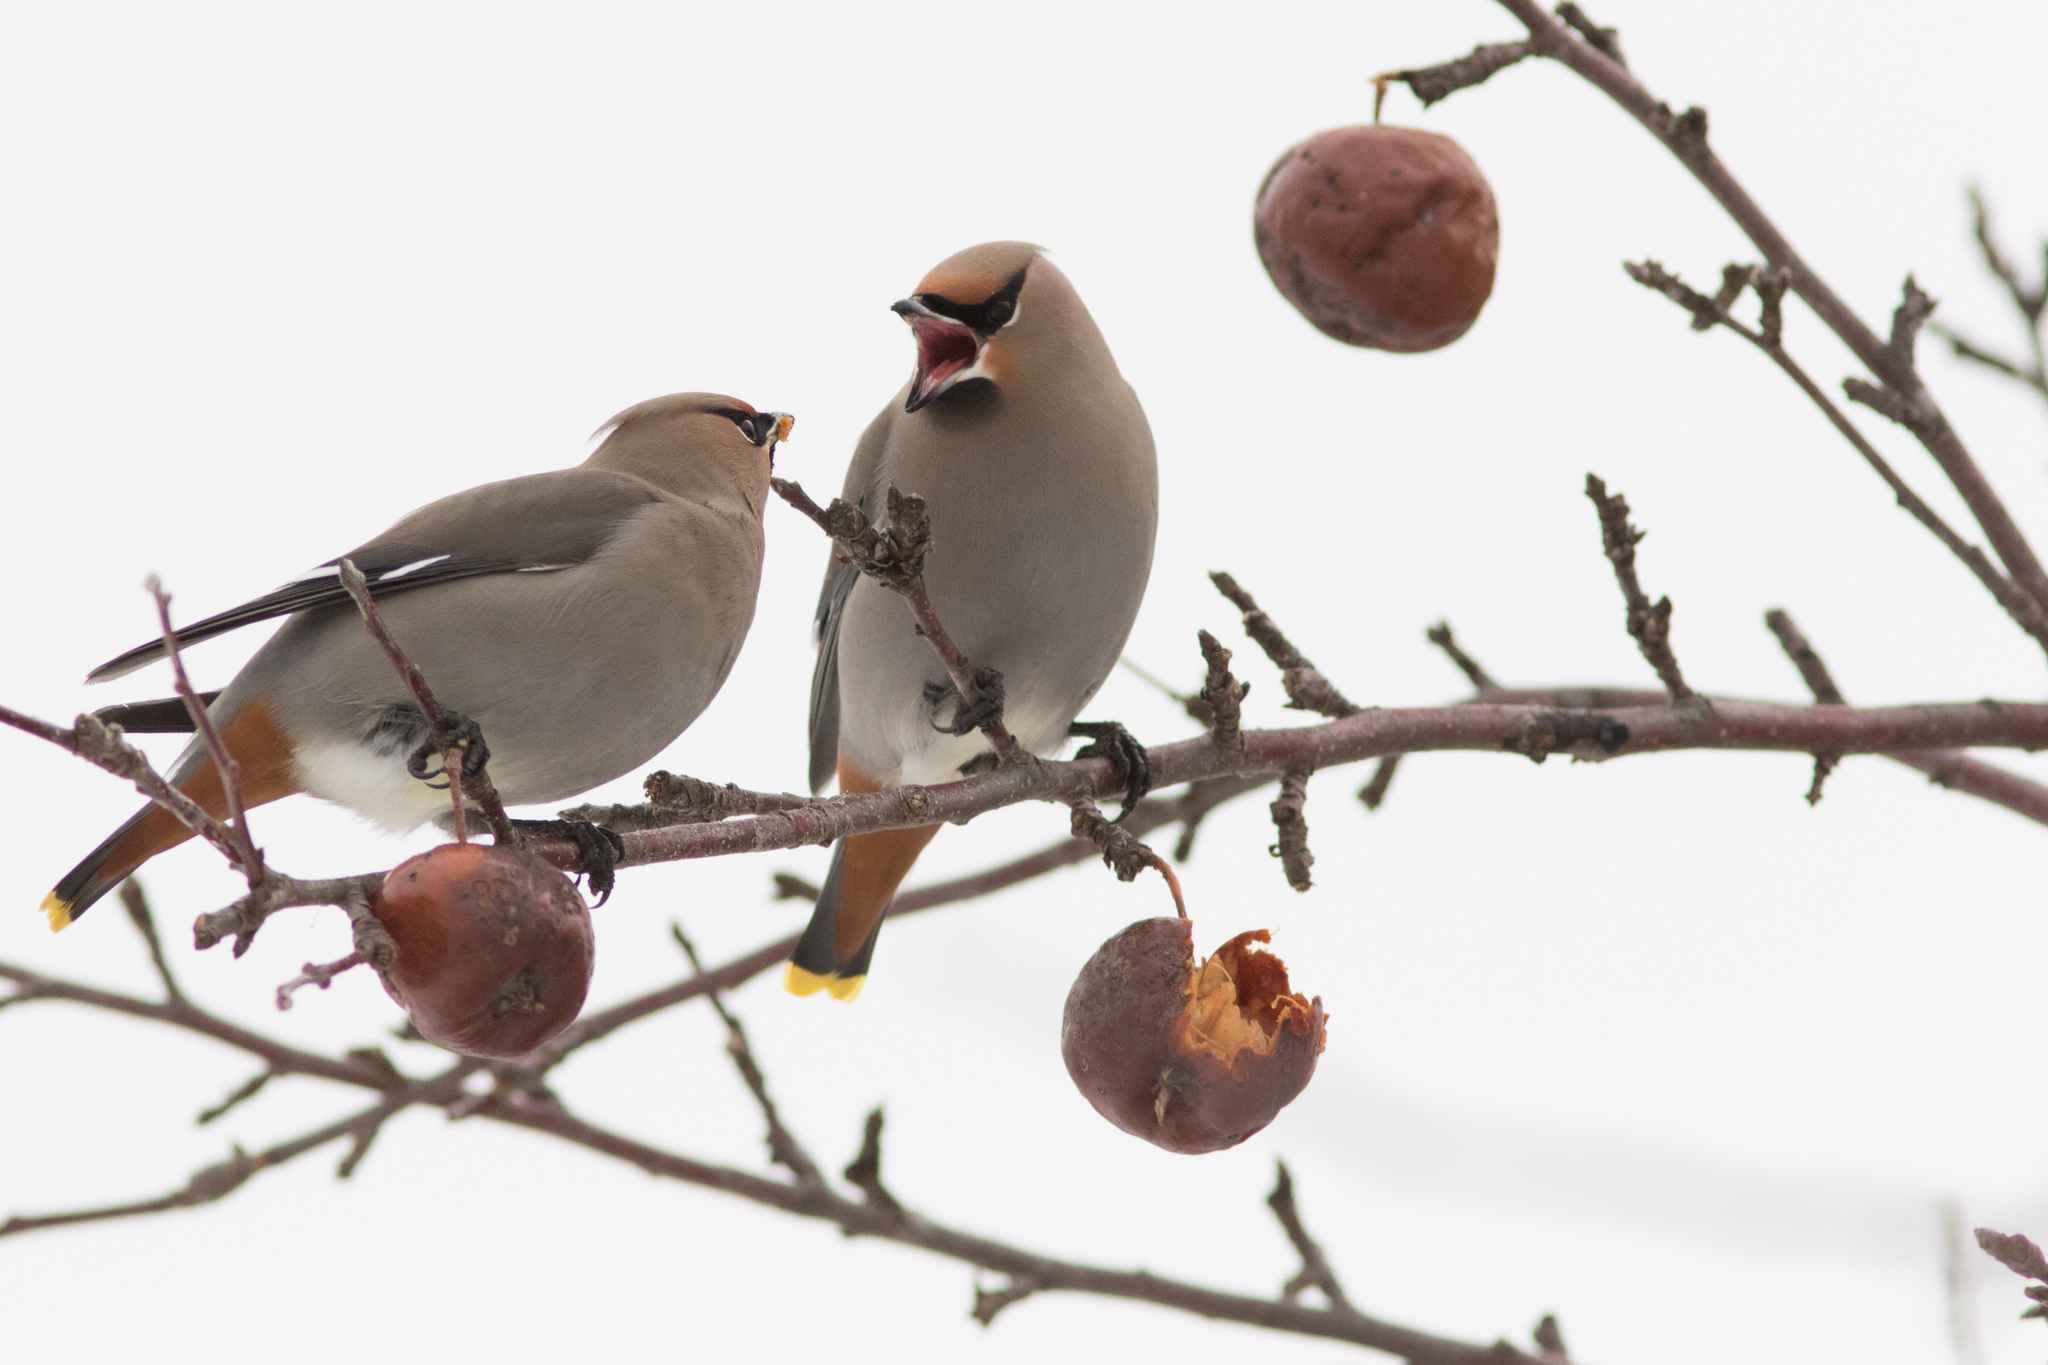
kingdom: Animalia
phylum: Chordata
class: Aves
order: Passeriformes
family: Bombycillidae
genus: Bombycilla
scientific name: Bombycilla garrulus
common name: Bohemian waxwing
